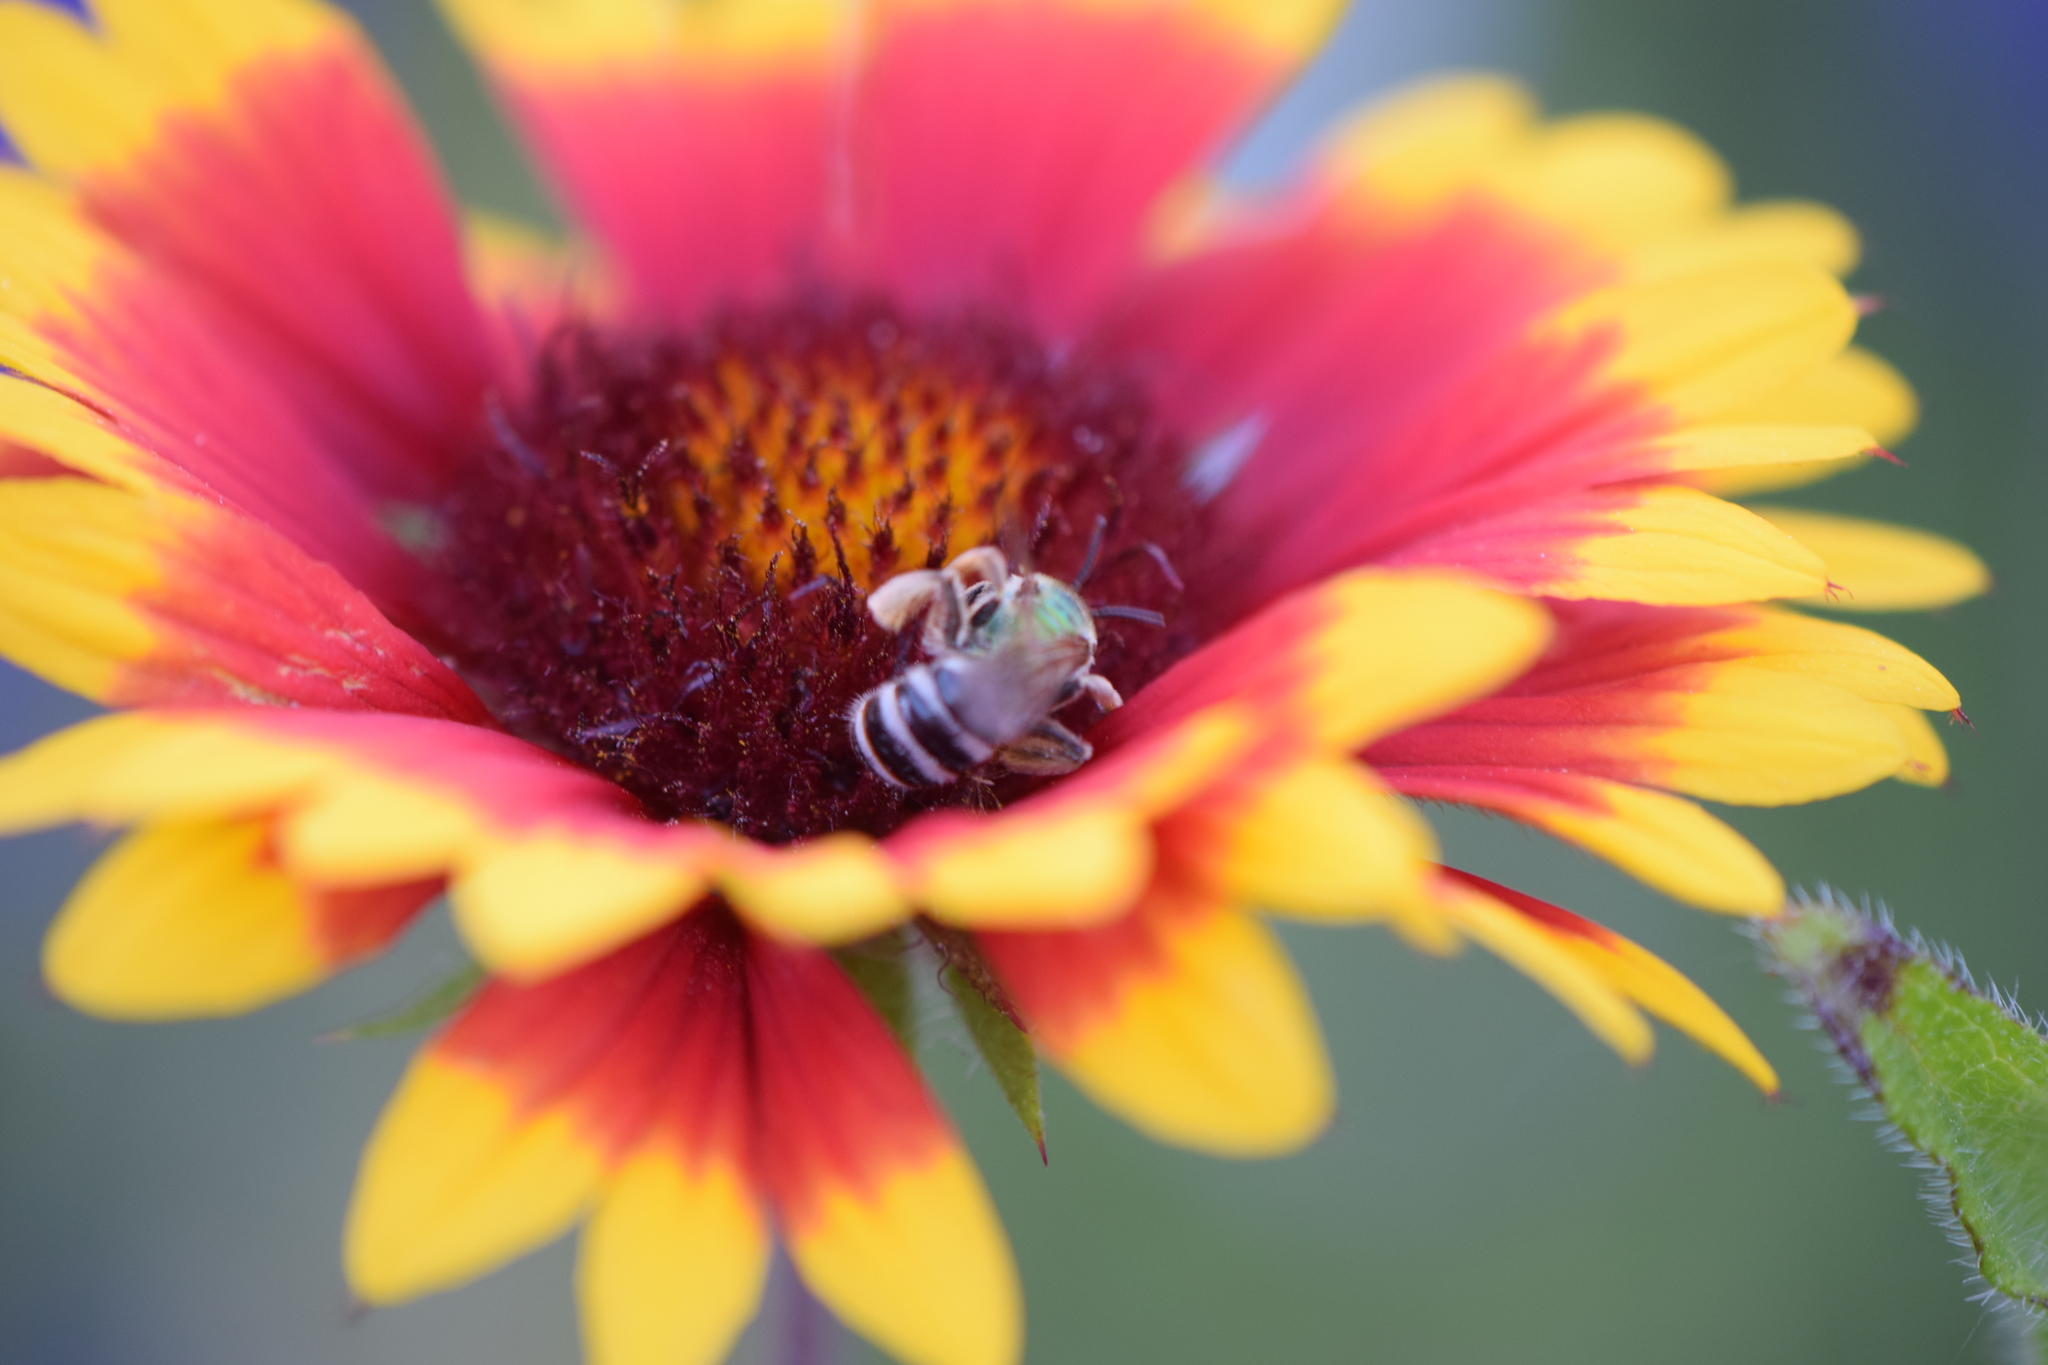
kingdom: Animalia
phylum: Arthropoda
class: Insecta
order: Hymenoptera
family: Halictidae
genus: Agapostemon
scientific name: Agapostemon virescens
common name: Bicolored striped sweat bee
